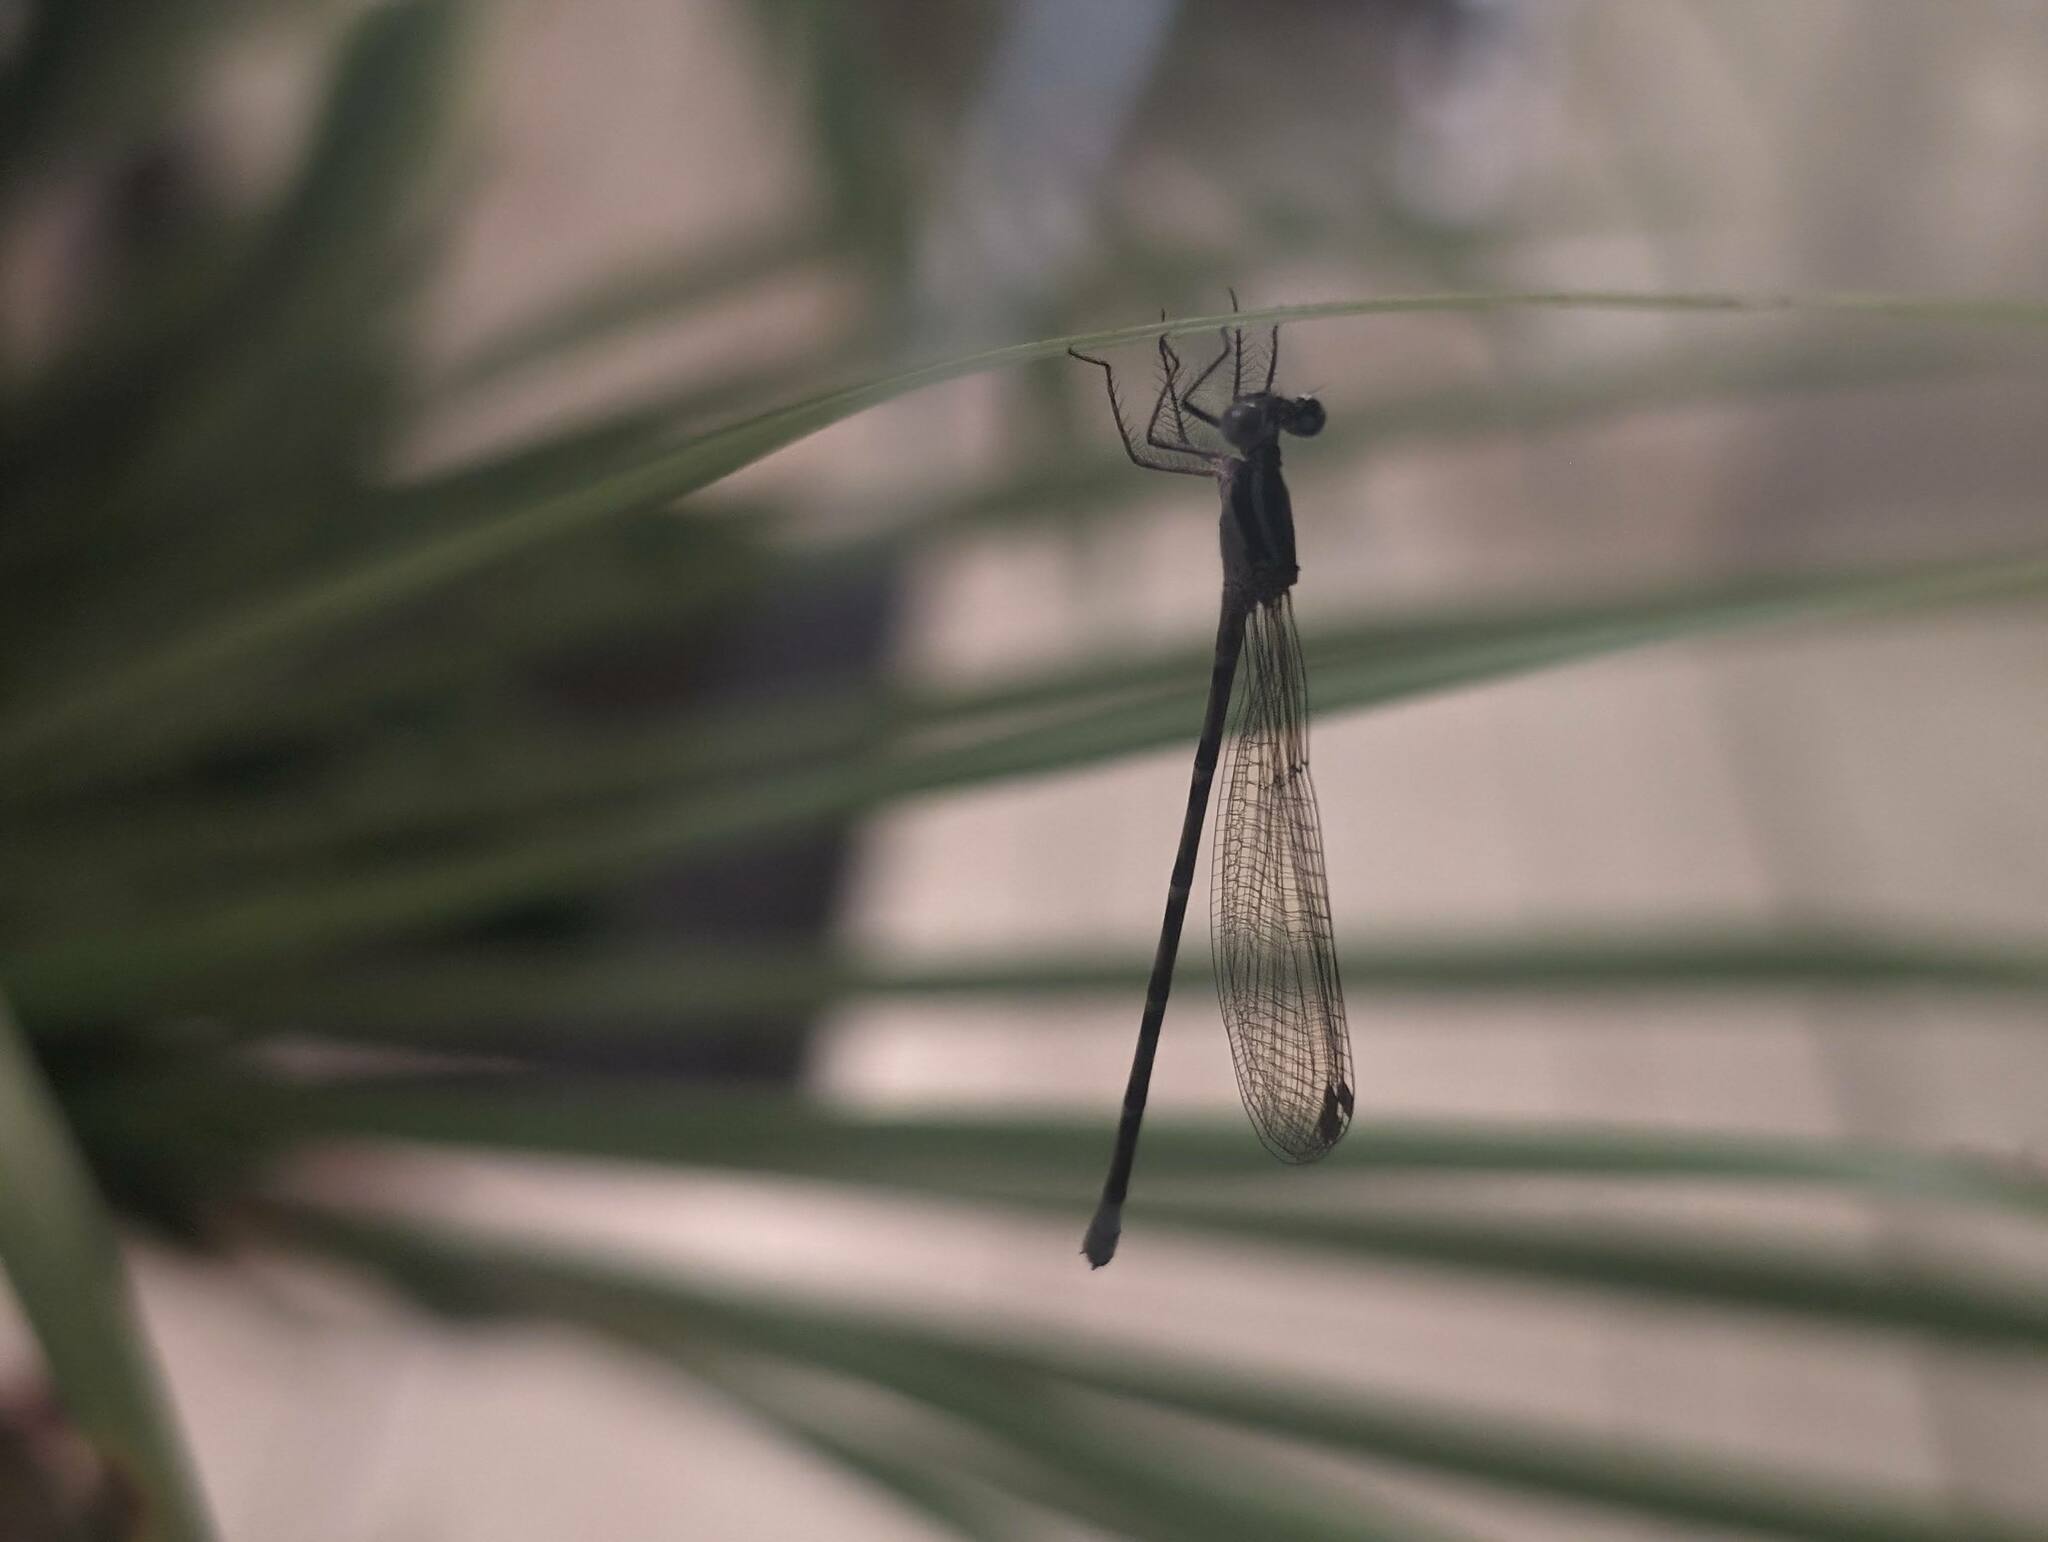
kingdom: Animalia
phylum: Arthropoda
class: Insecta
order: Odonata
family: Coenagrionidae
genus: Argia
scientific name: Argia pulla
